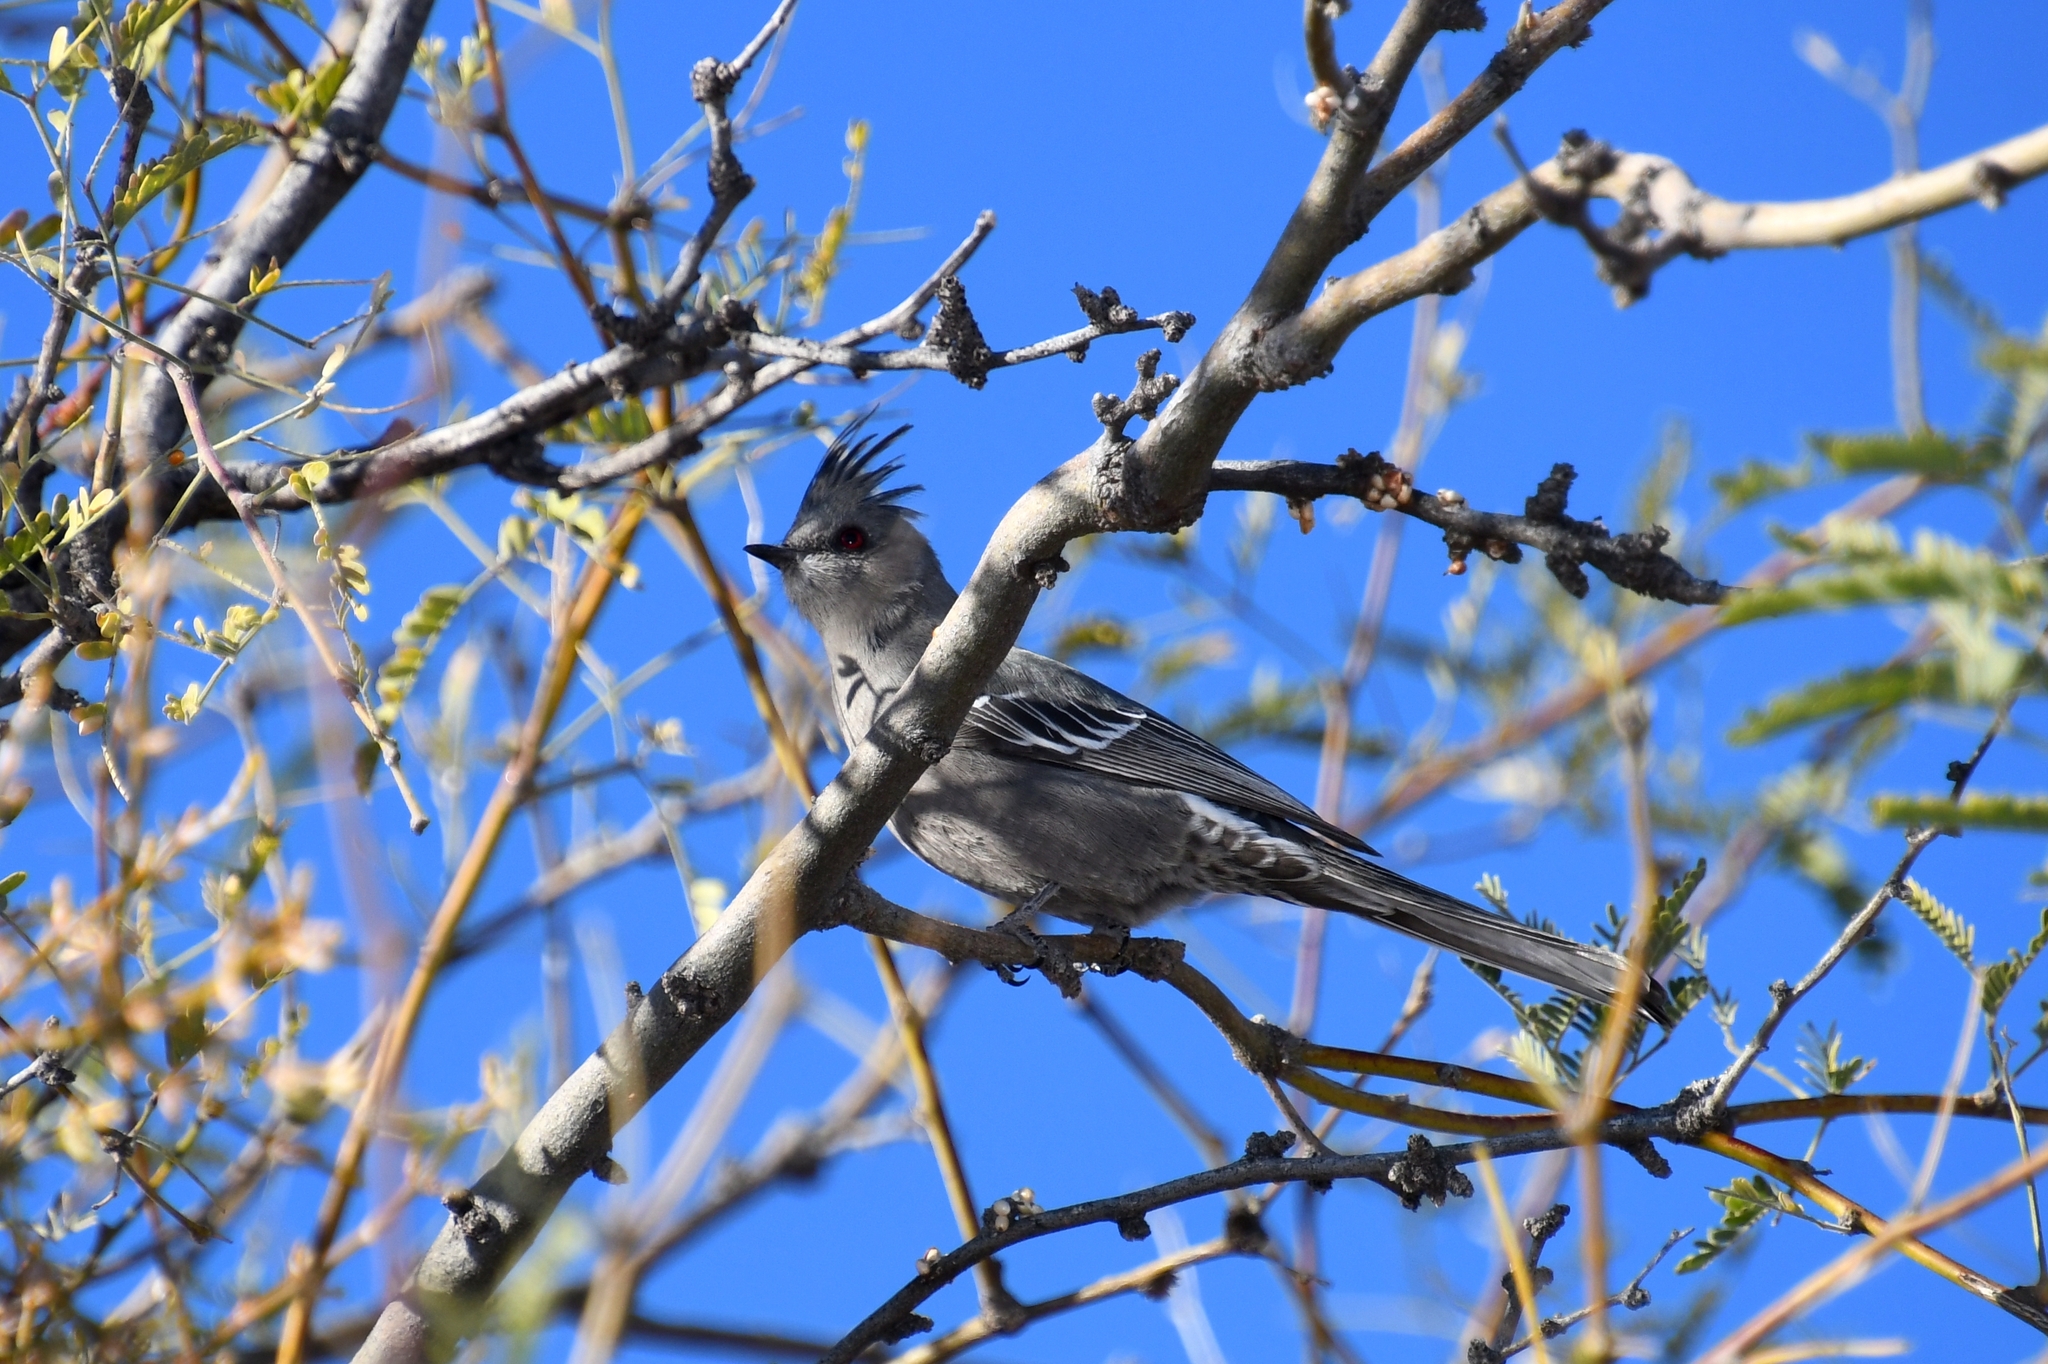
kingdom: Animalia
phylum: Chordata
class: Aves
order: Passeriformes
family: Ptilogonatidae
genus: Phainopepla
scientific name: Phainopepla nitens
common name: Phainopepla
